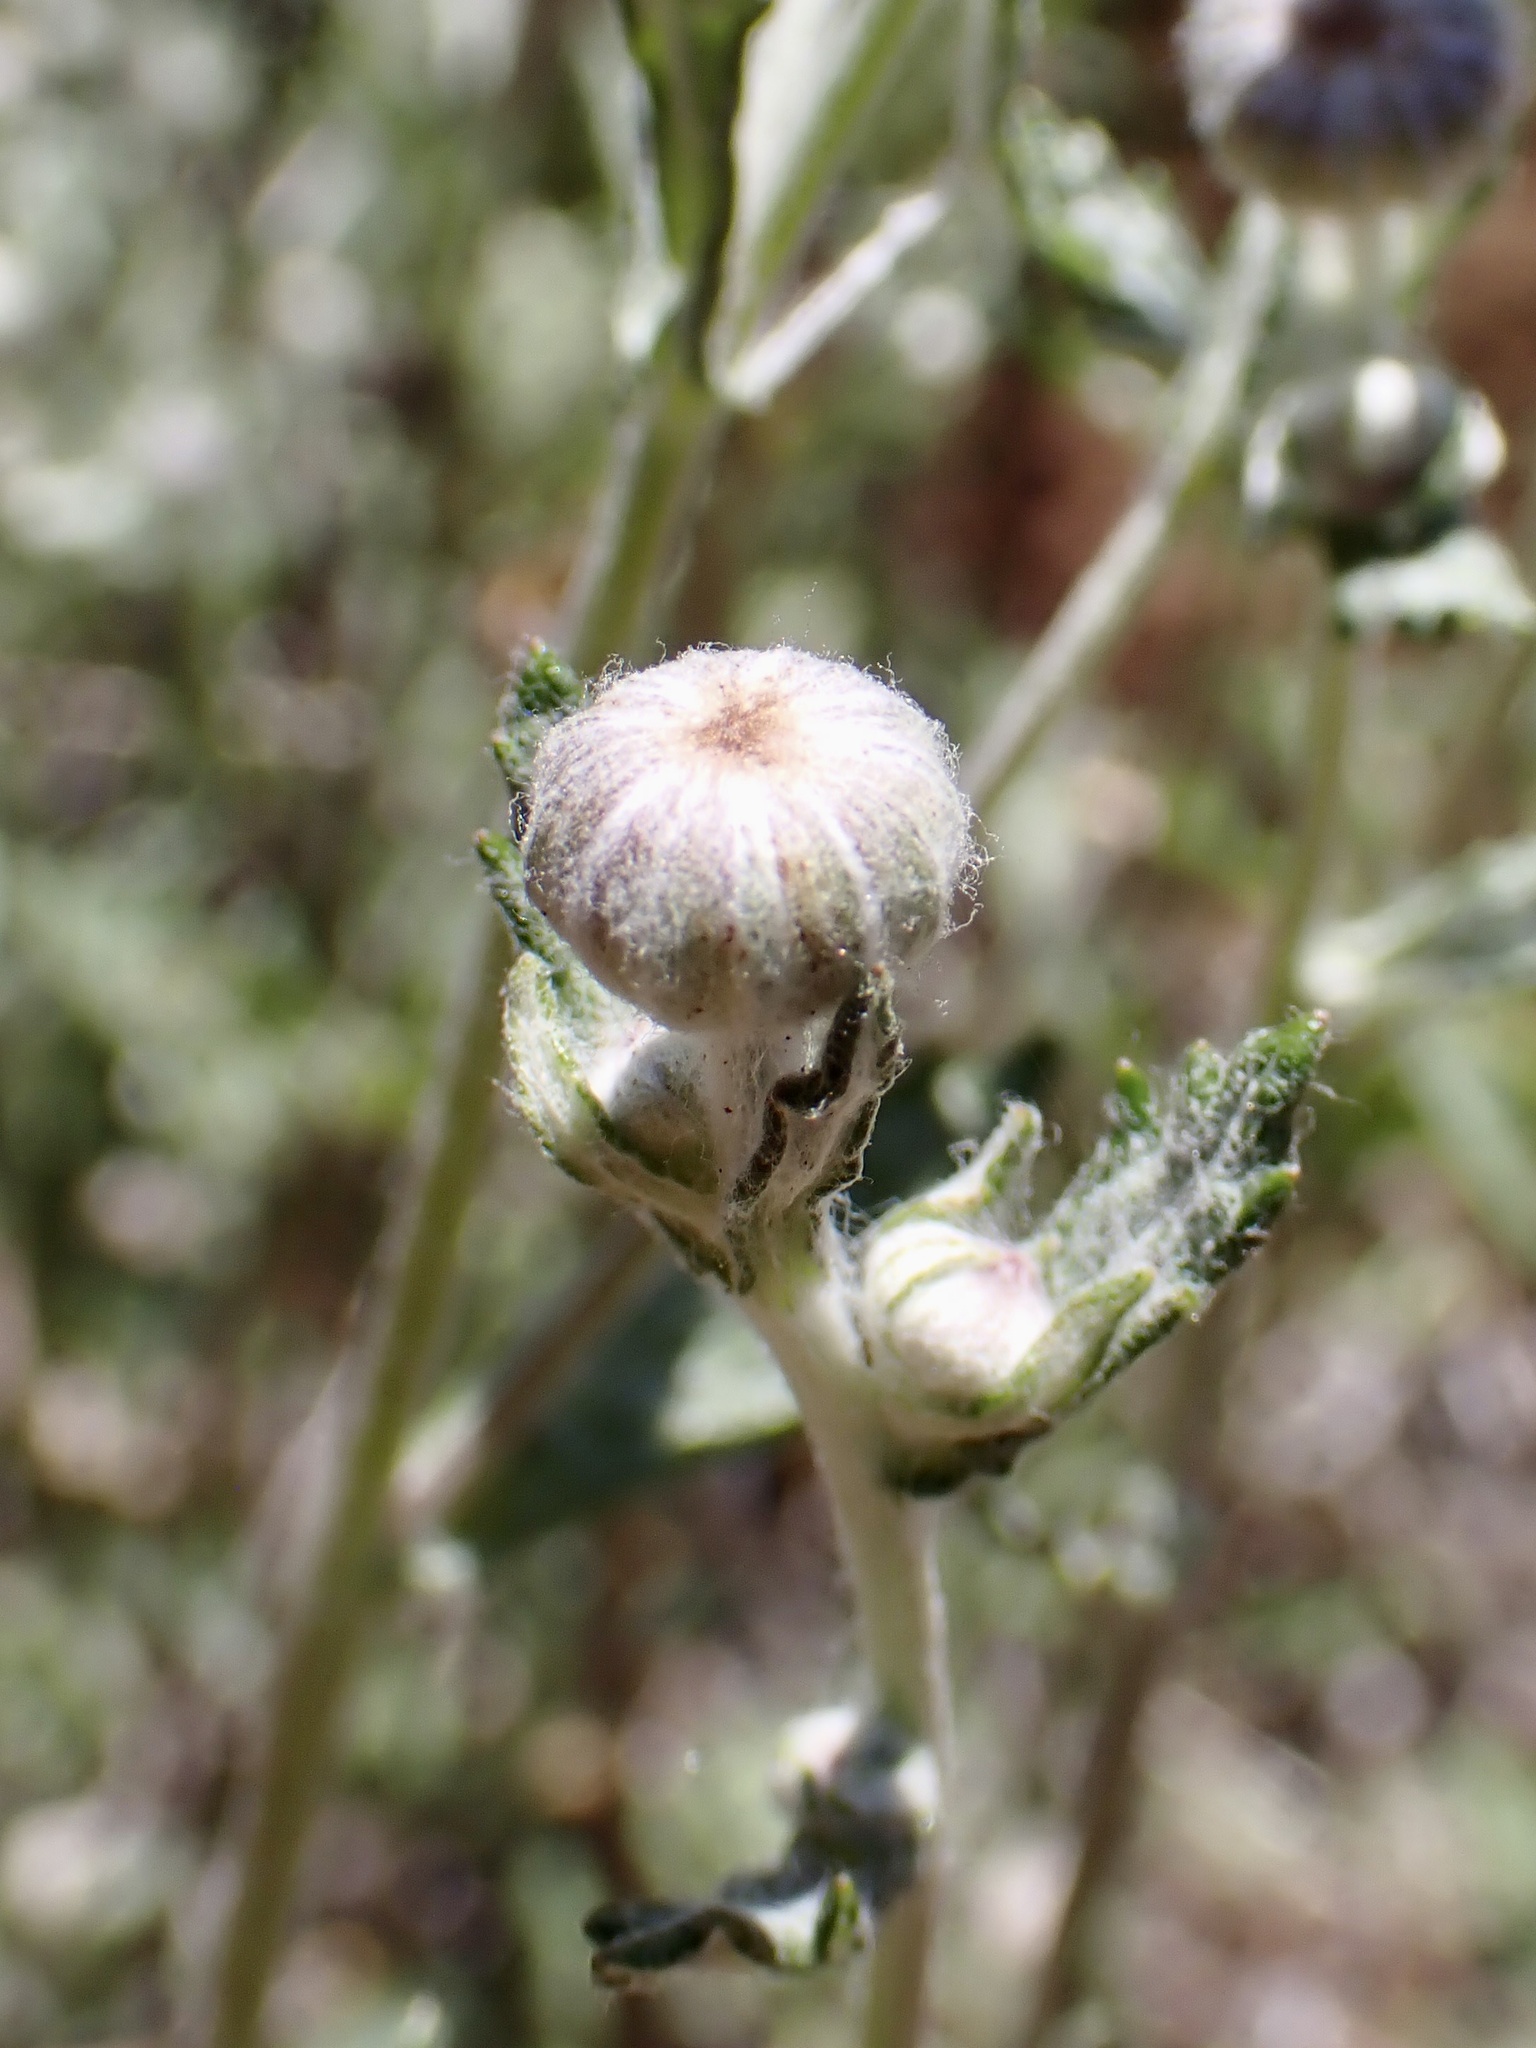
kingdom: Plantae
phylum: Tracheophyta
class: Magnoliopsida
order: Asterales
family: Asteraceae
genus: Eriophyllum
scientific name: Eriophyllum lanatum
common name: Common woolly-sunflower
